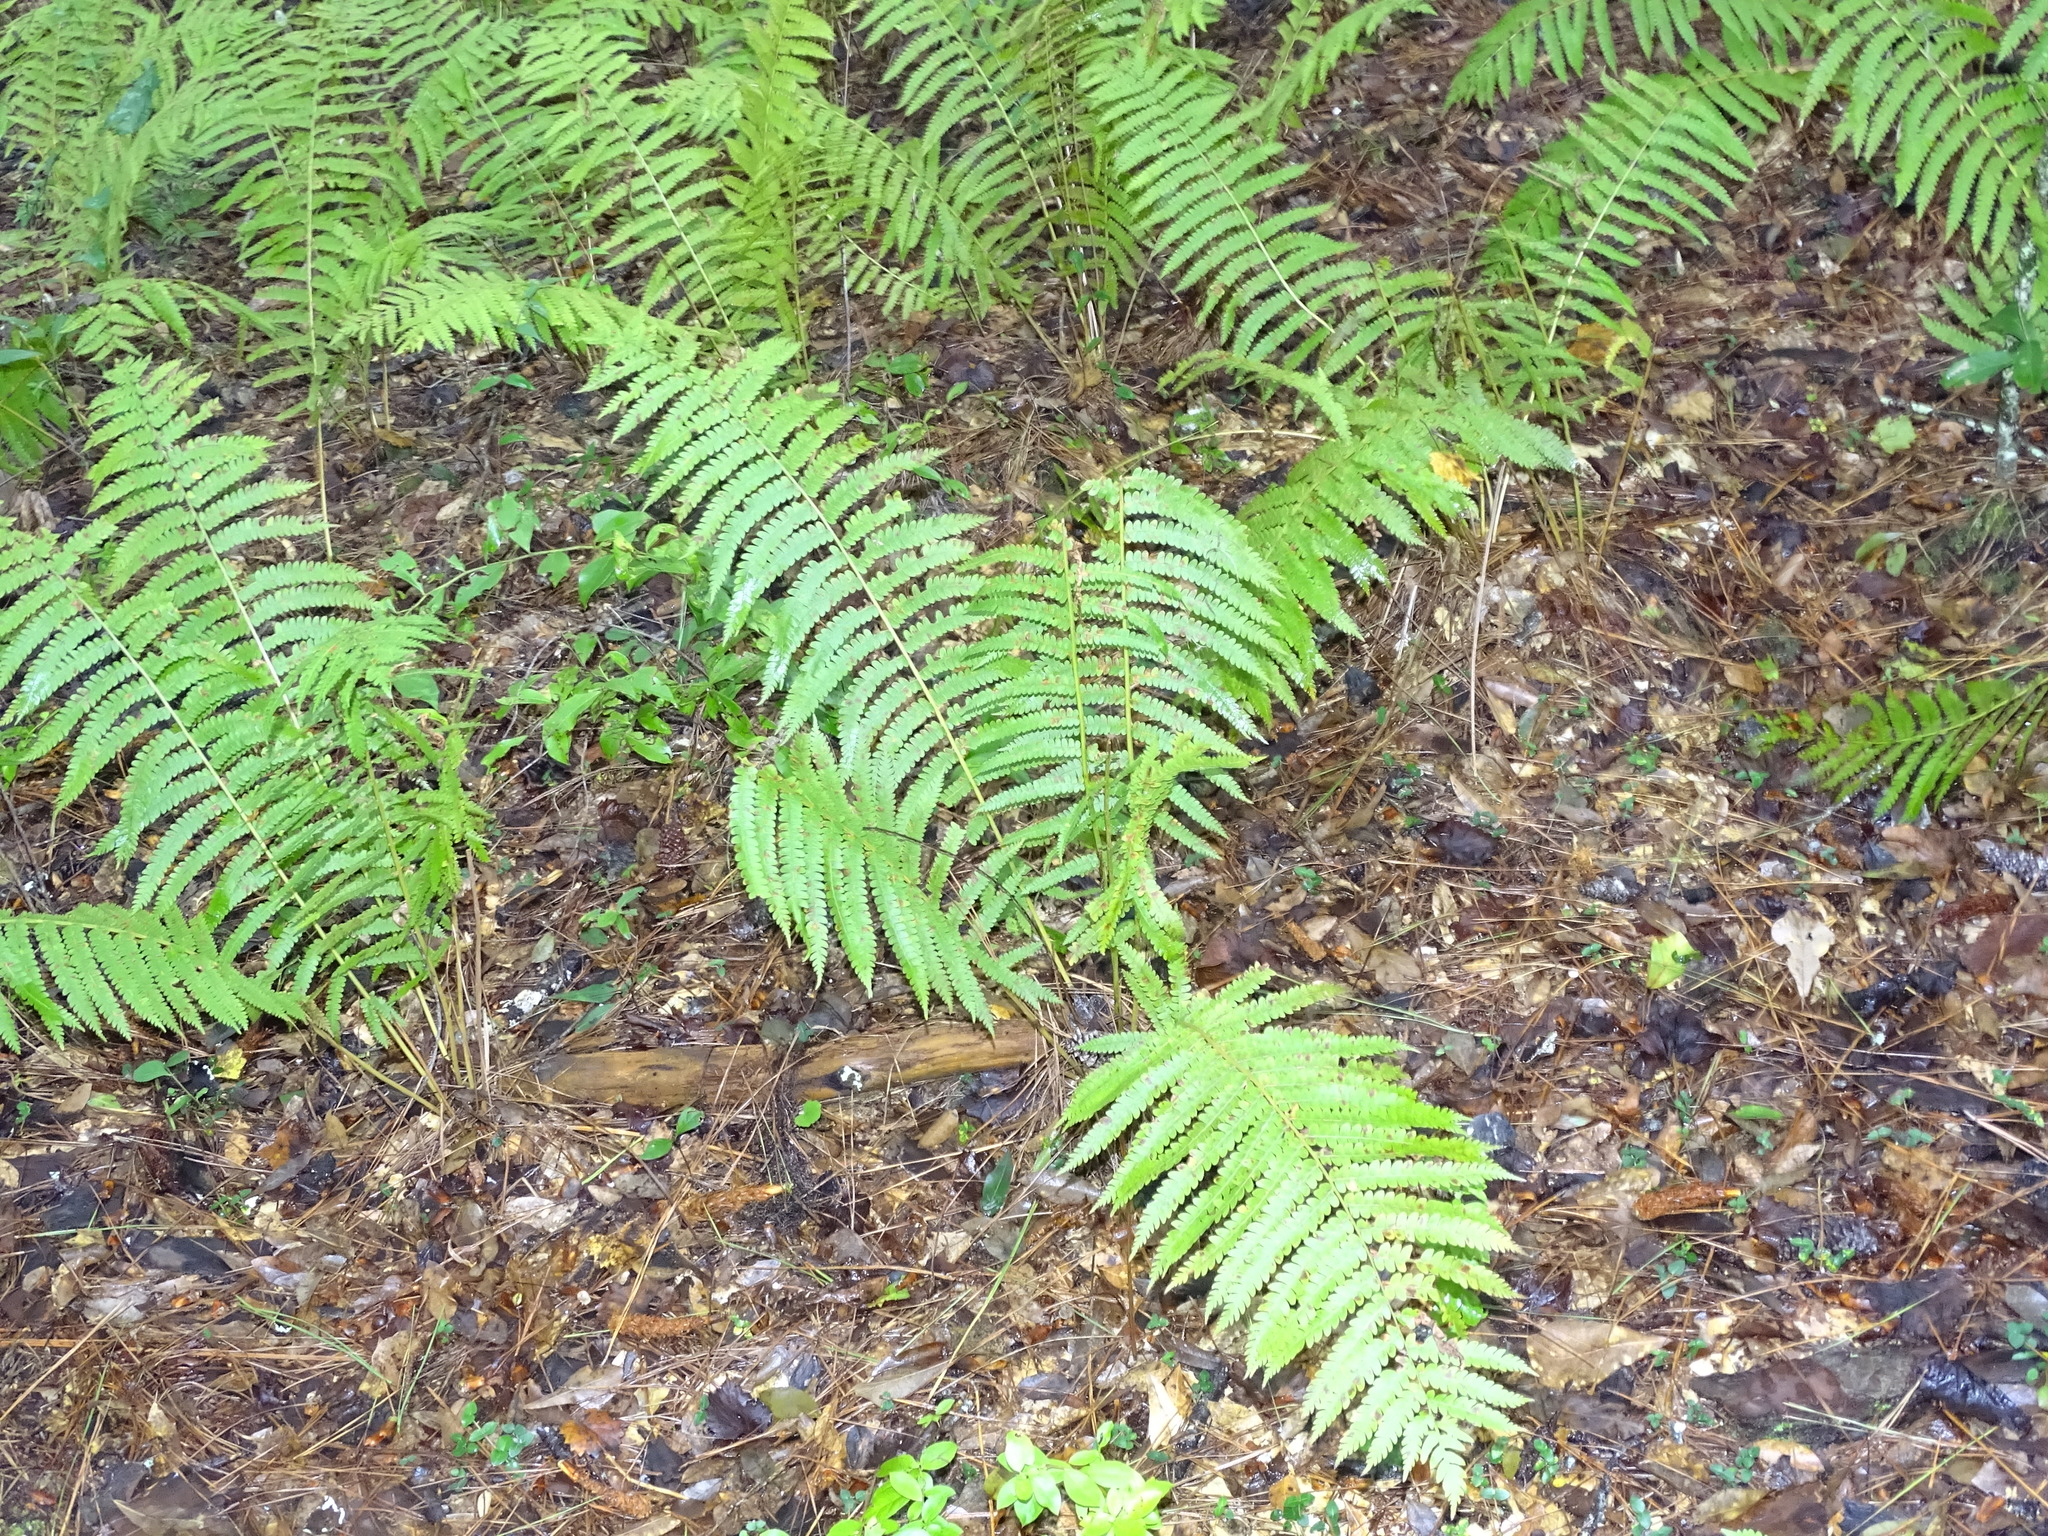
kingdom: Plantae
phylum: Tracheophyta
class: Polypodiopsida
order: Polypodiales
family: Thelypteridaceae
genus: Cyclosorus
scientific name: Cyclosorus interruptus
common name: Neke fern
